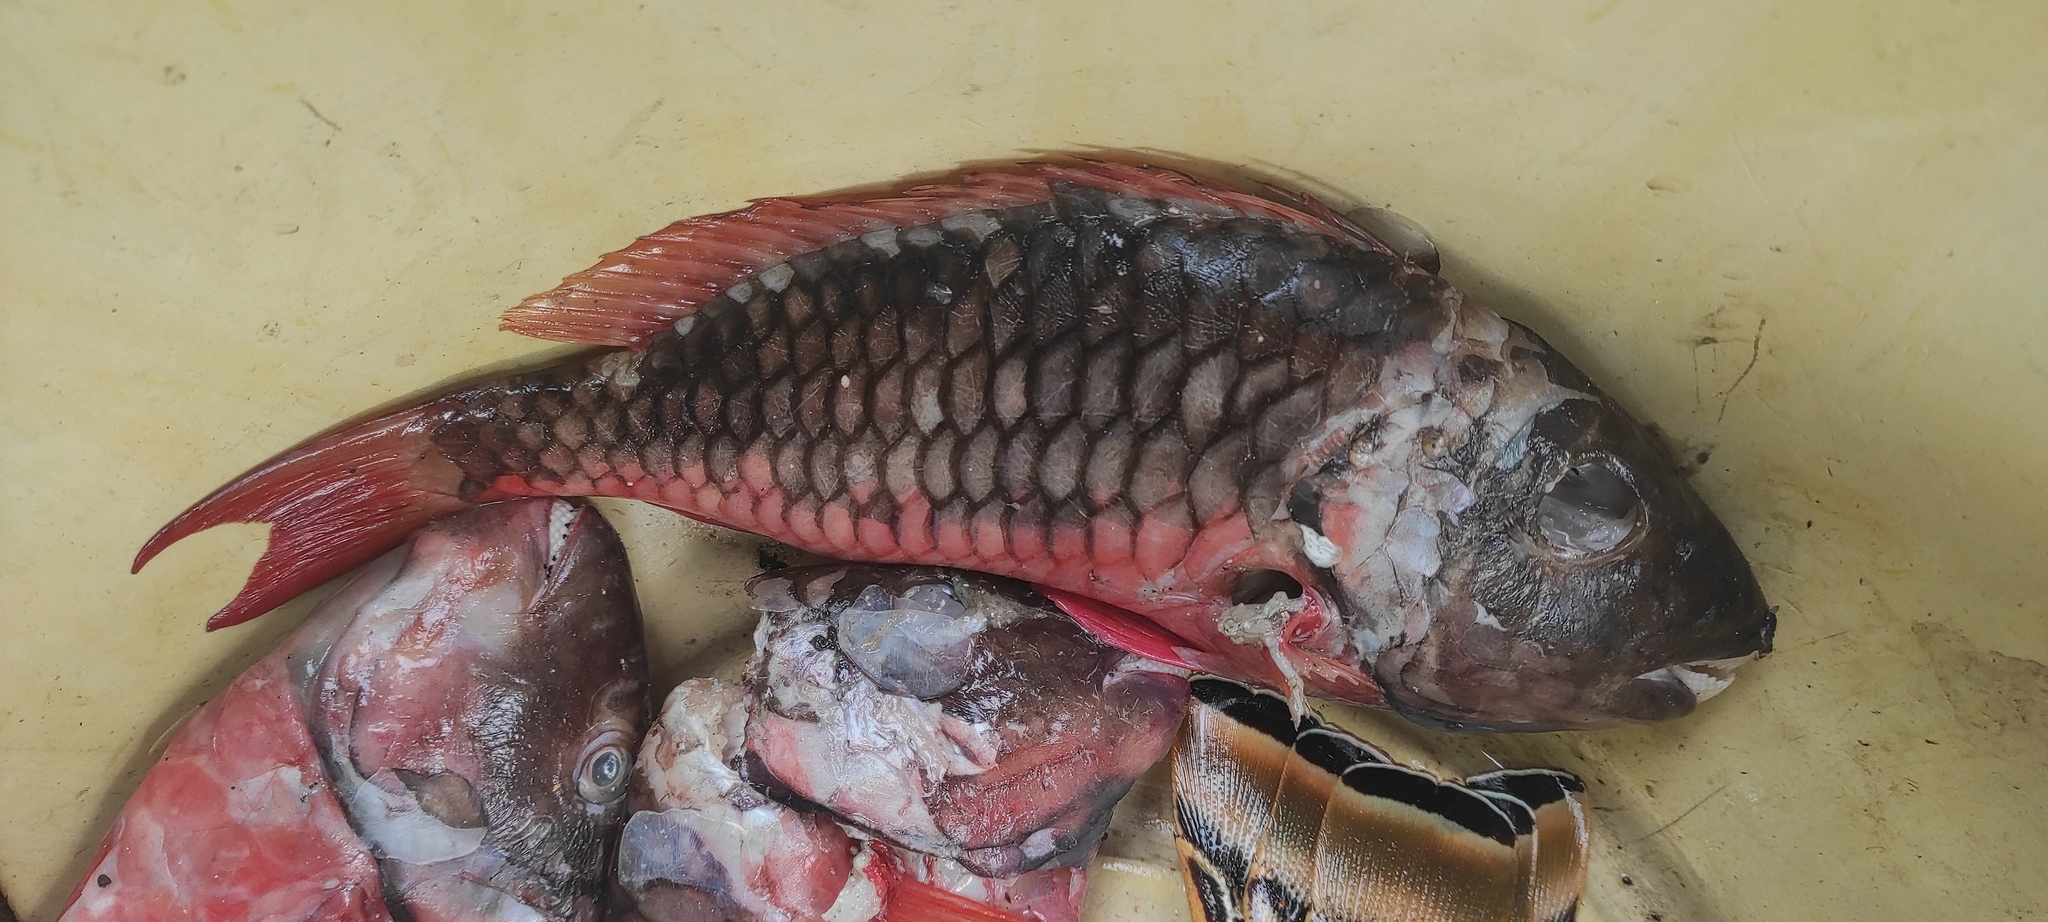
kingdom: Animalia
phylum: Chordata
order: Perciformes
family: Scaridae
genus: Sparisoma
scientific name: Sparisoma viride
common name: Stoplight parrotfish
